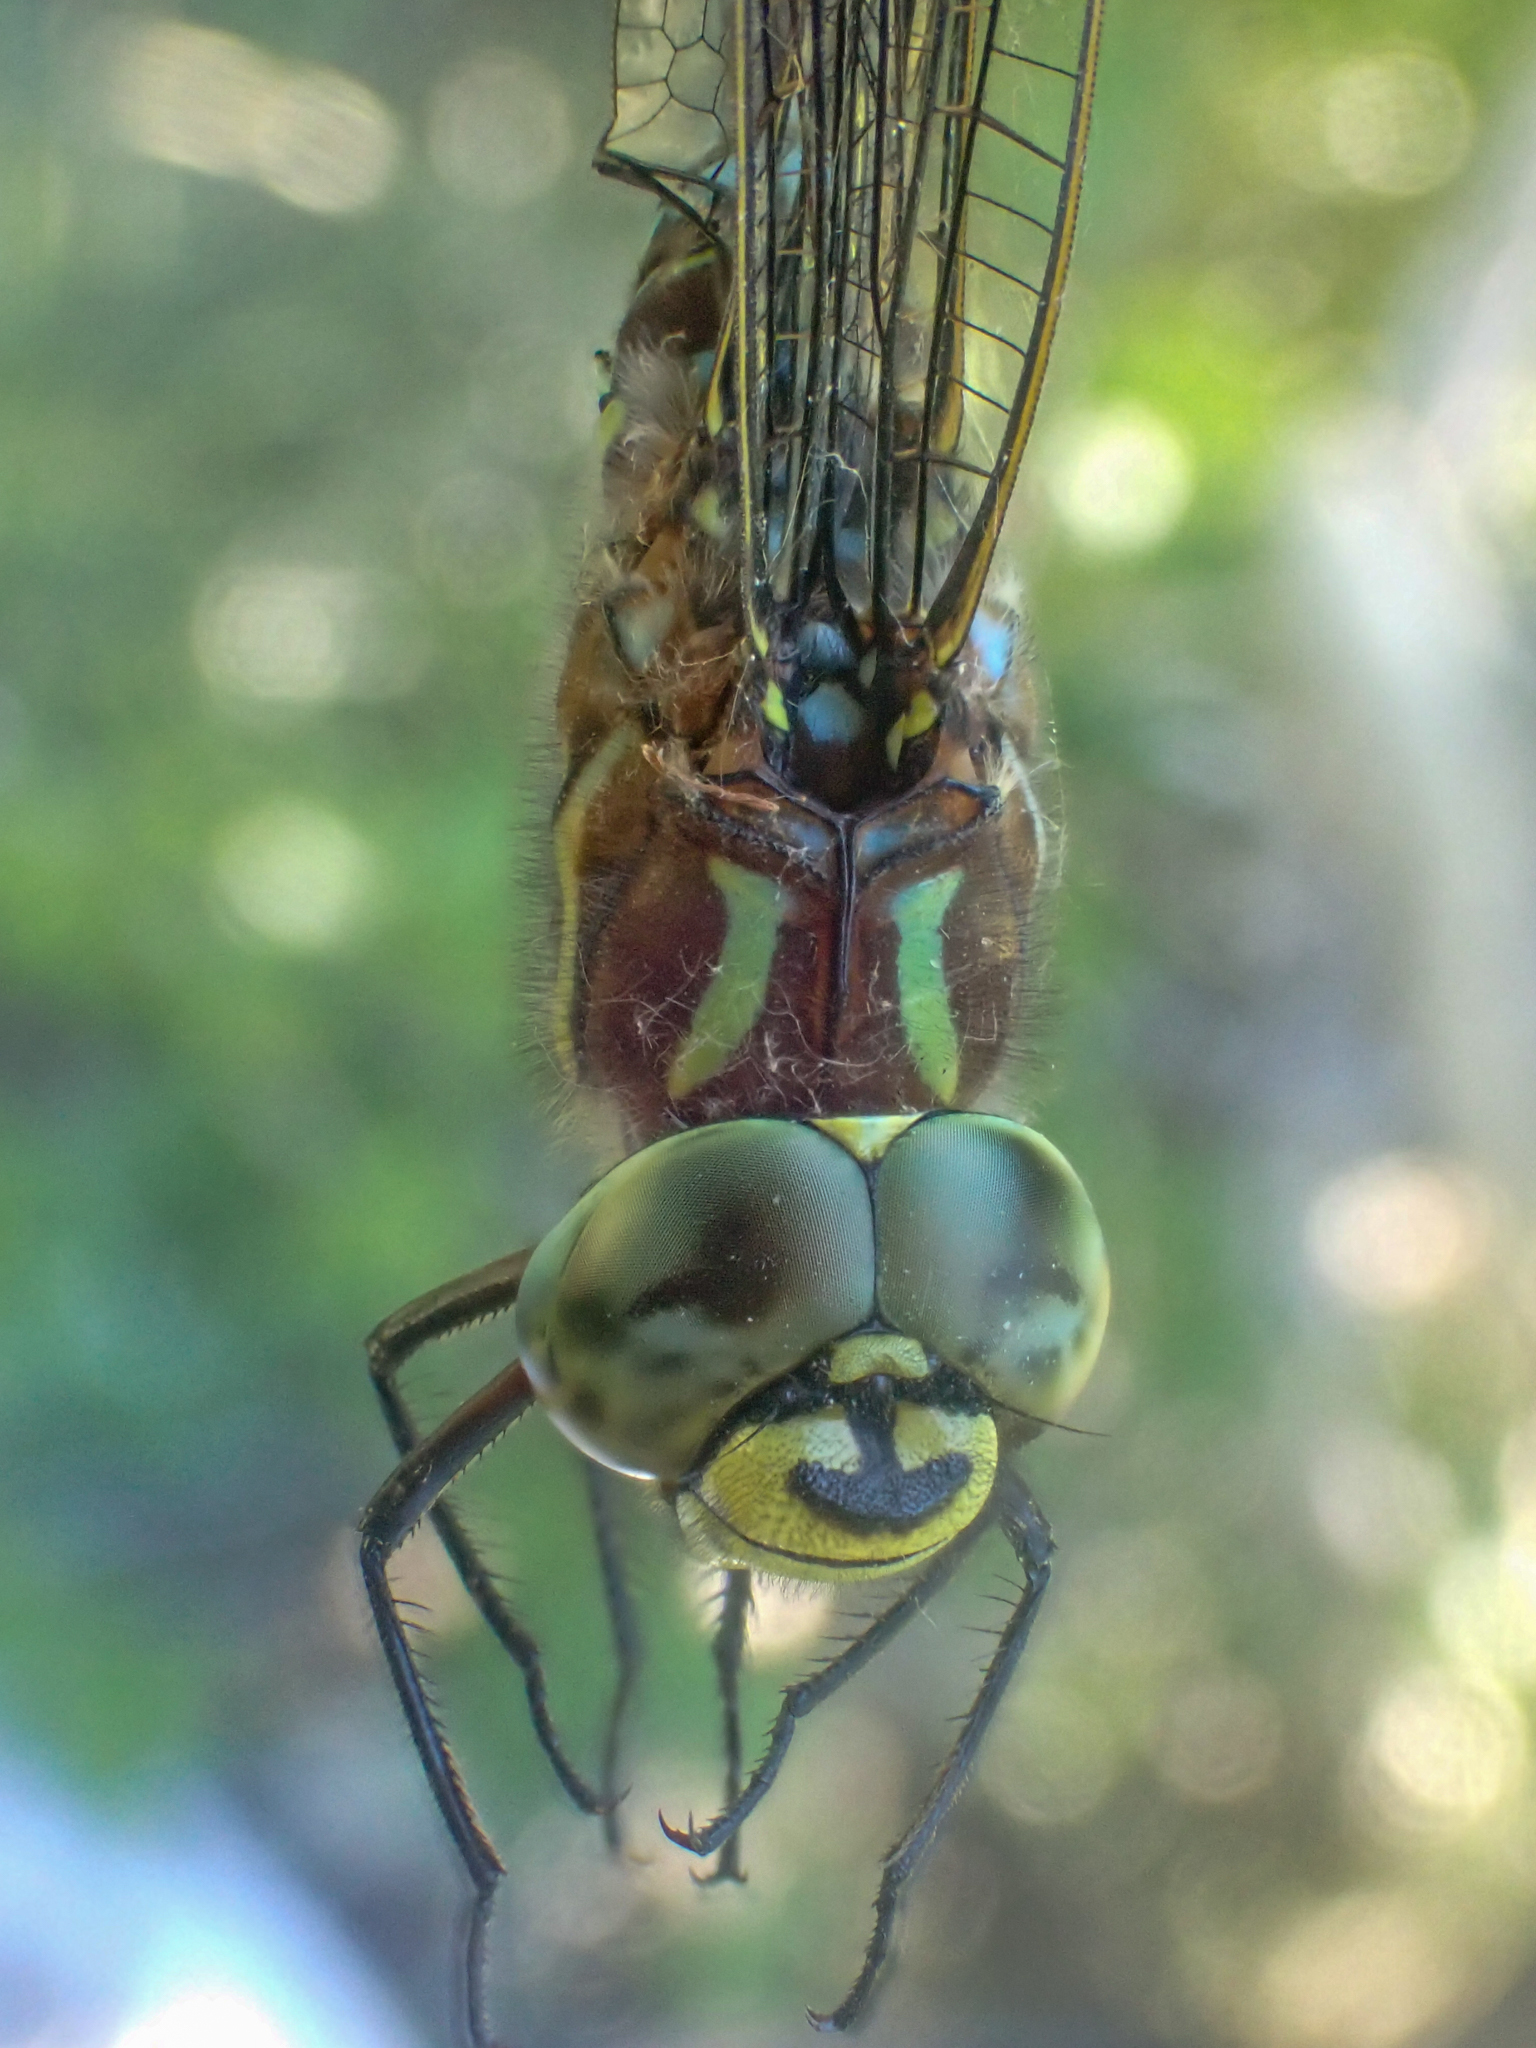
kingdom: Animalia
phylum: Arthropoda
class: Insecta
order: Odonata
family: Aeshnidae
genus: Aeshna
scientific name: Aeshna juncea
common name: Moorland hawker
